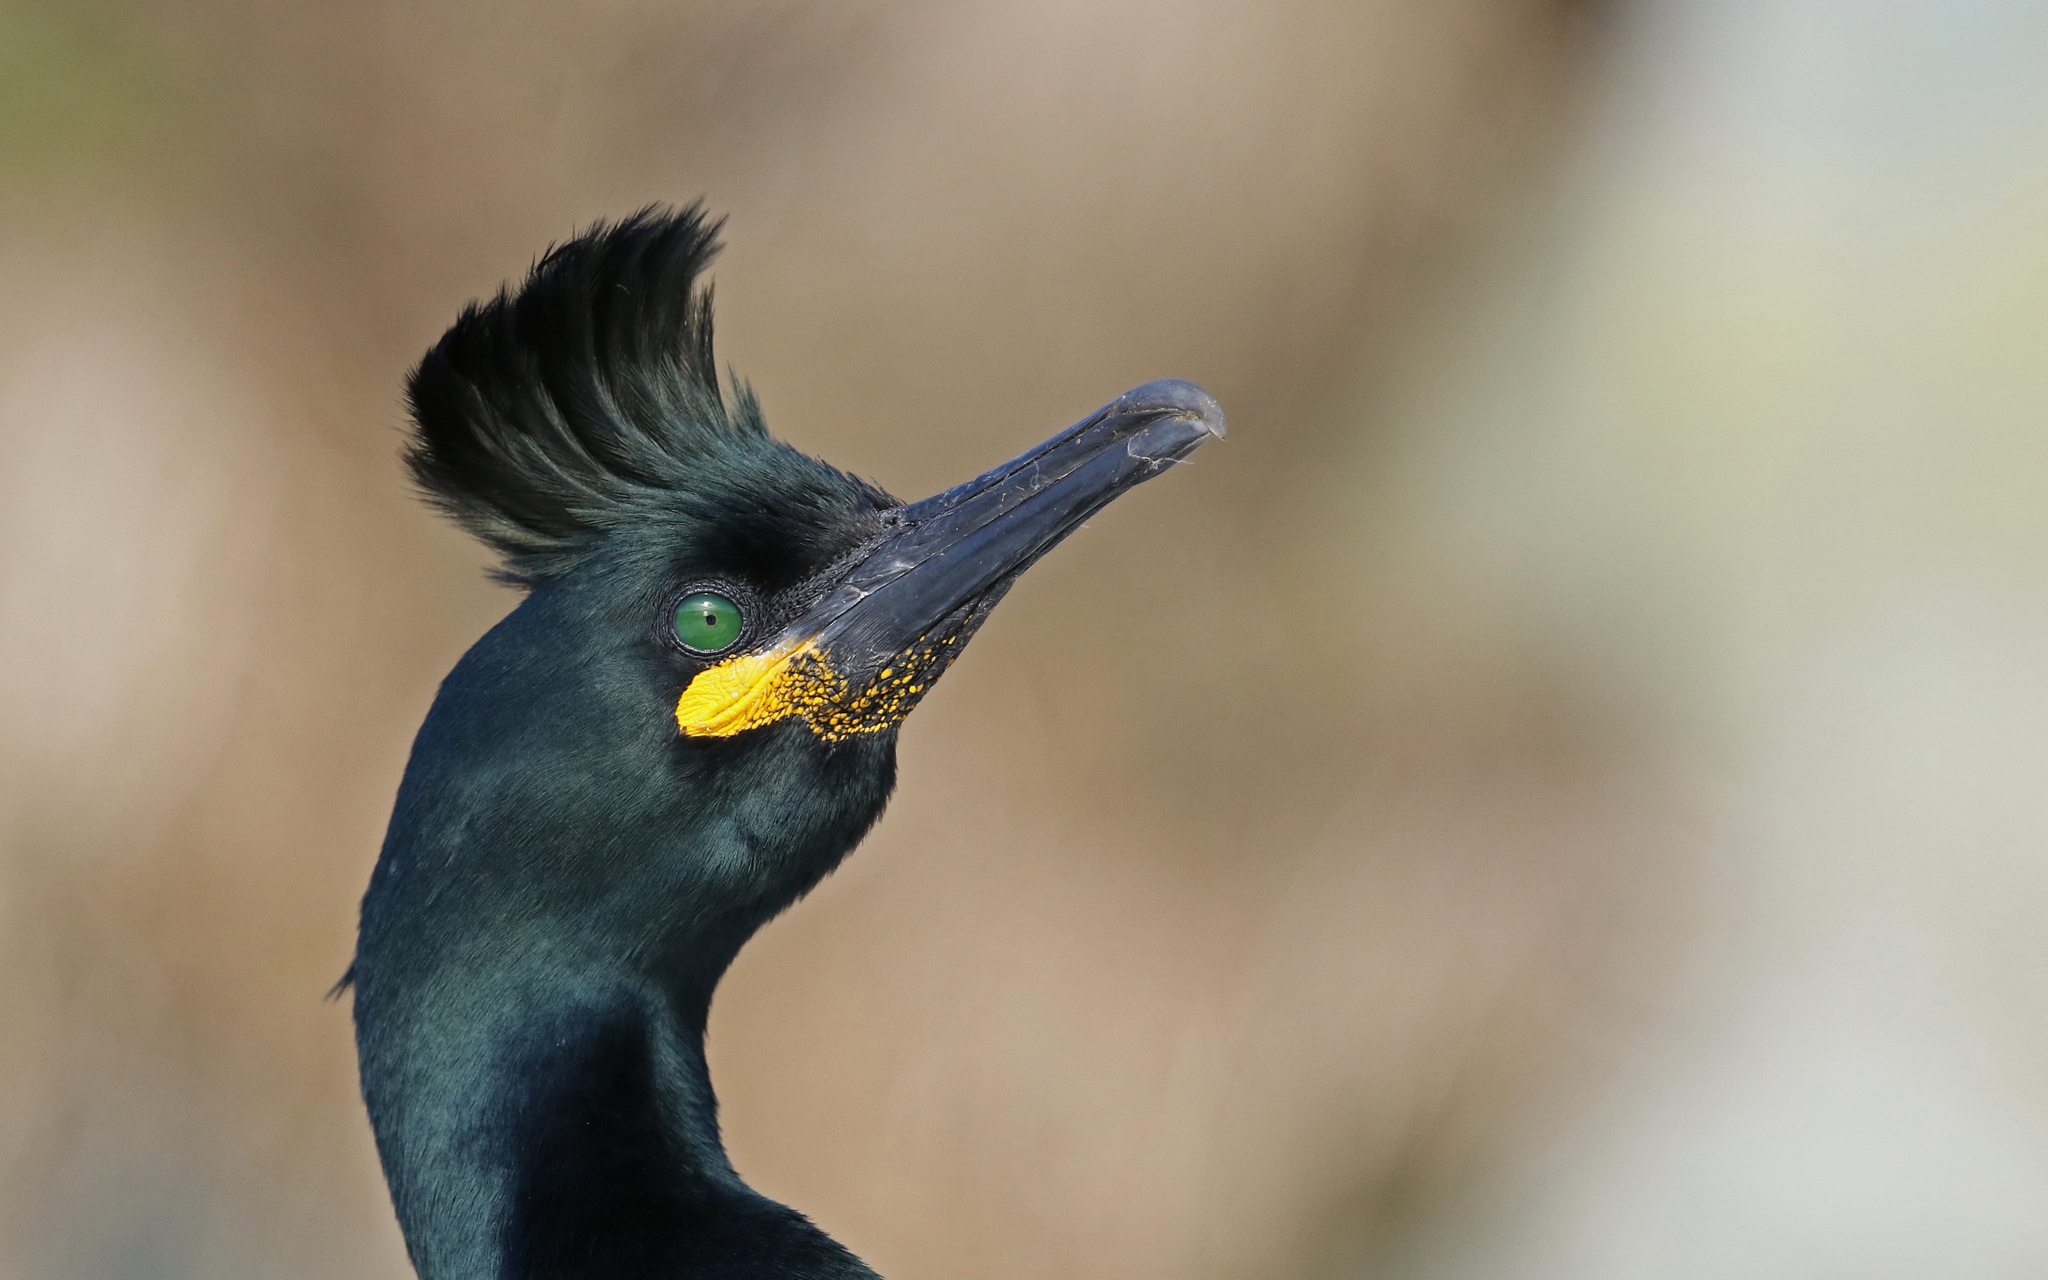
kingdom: Animalia
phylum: Chordata
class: Aves
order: Suliformes
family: Phalacrocoracidae
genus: Phalacrocorax
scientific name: Phalacrocorax aristotelis
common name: European shag
